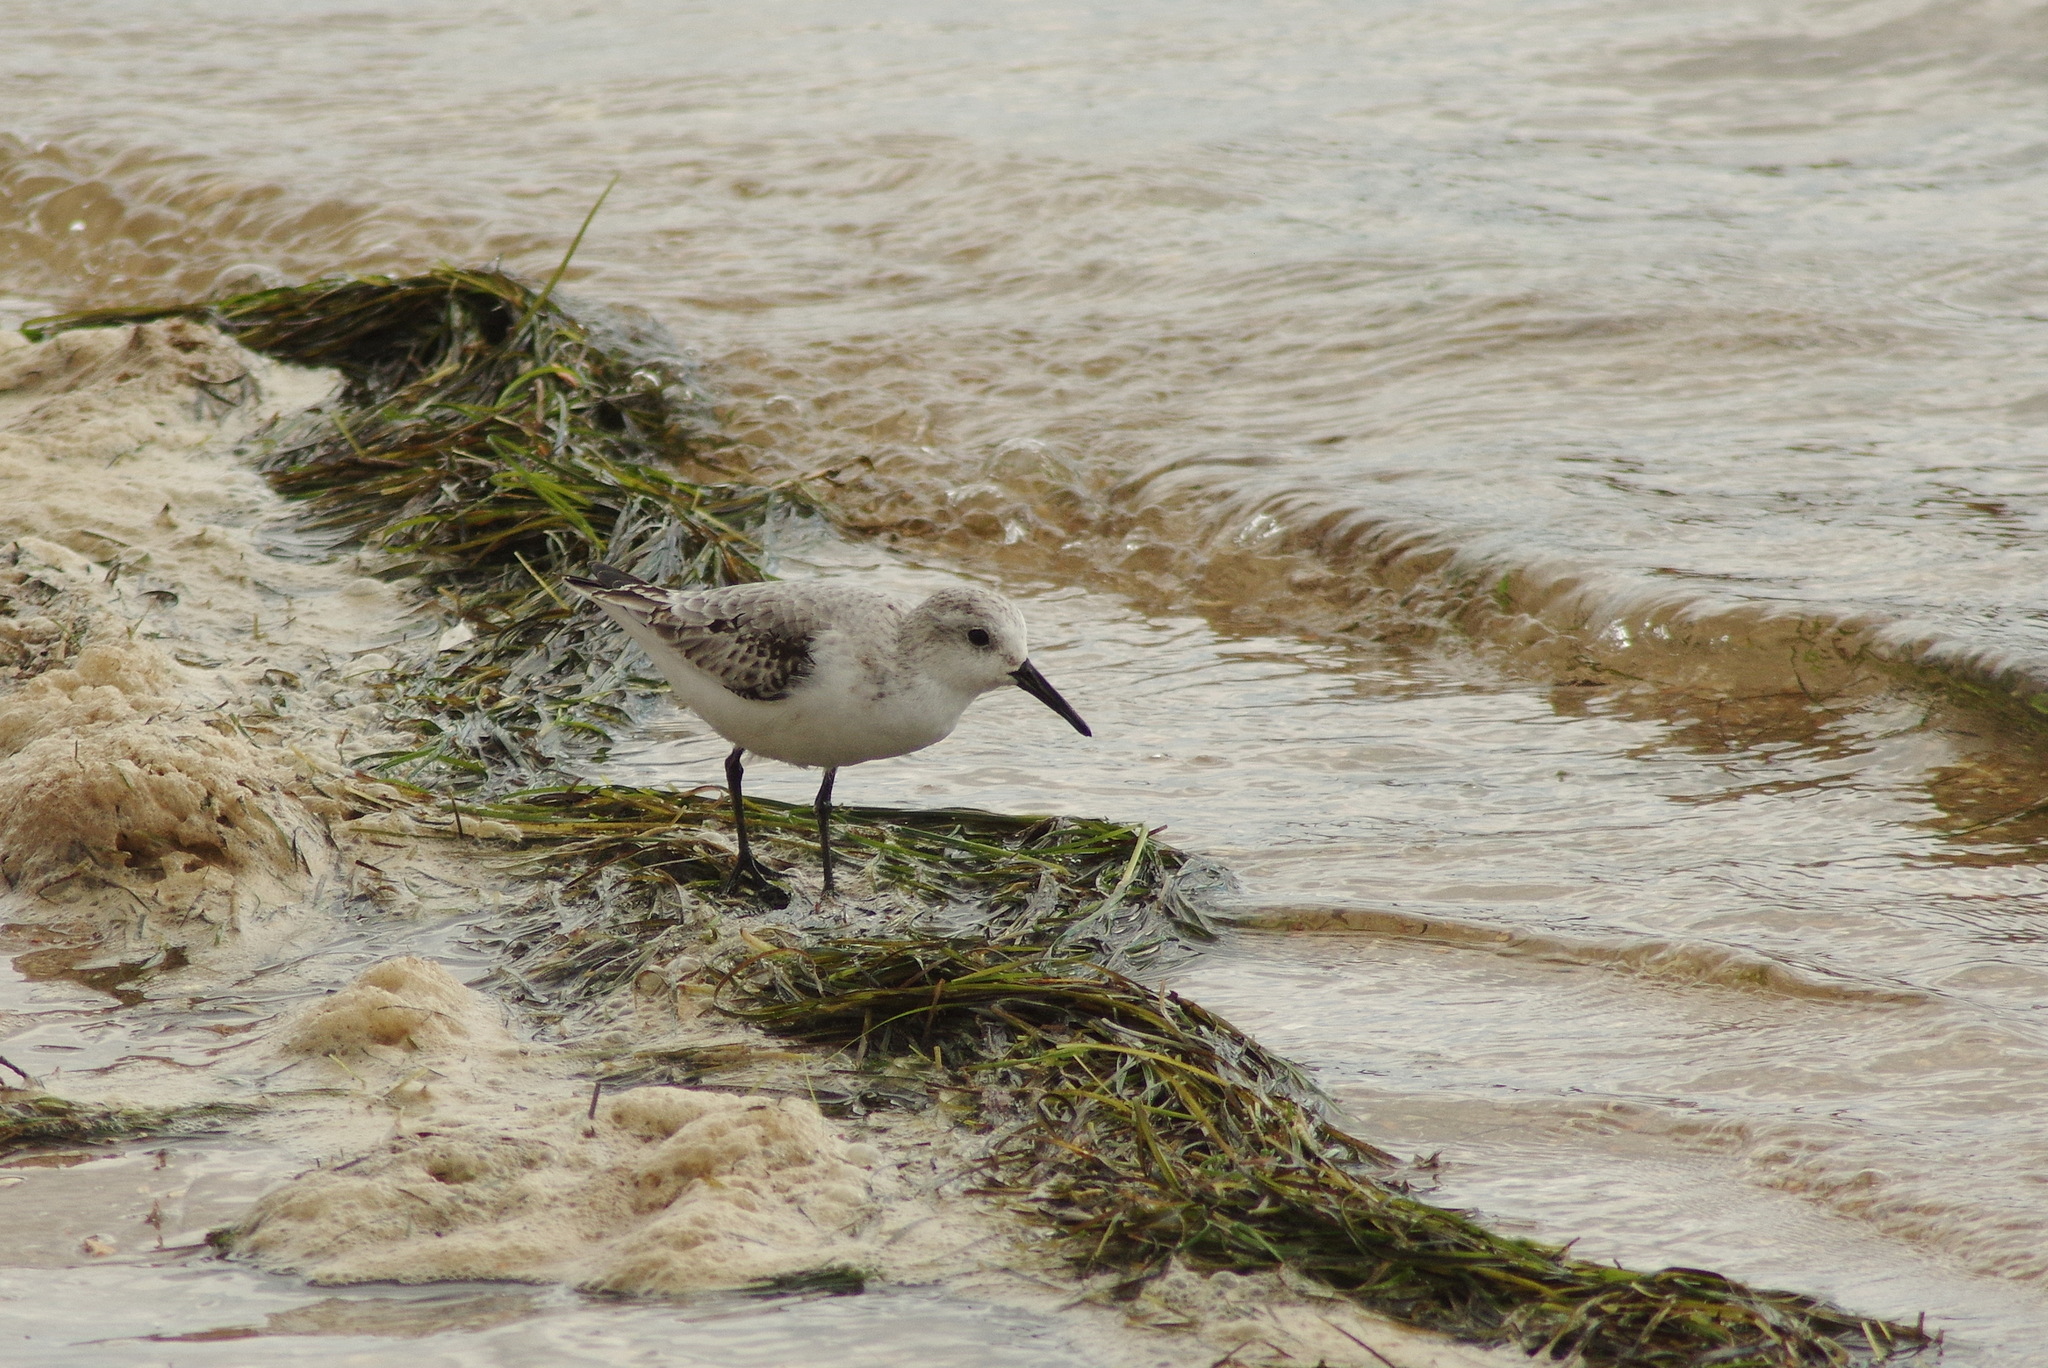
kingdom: Animalia
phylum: Chordata
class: Aves
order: Charadriiformes
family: Scolopacidae
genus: Calidris
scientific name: Calidris alba
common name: Sanderling
